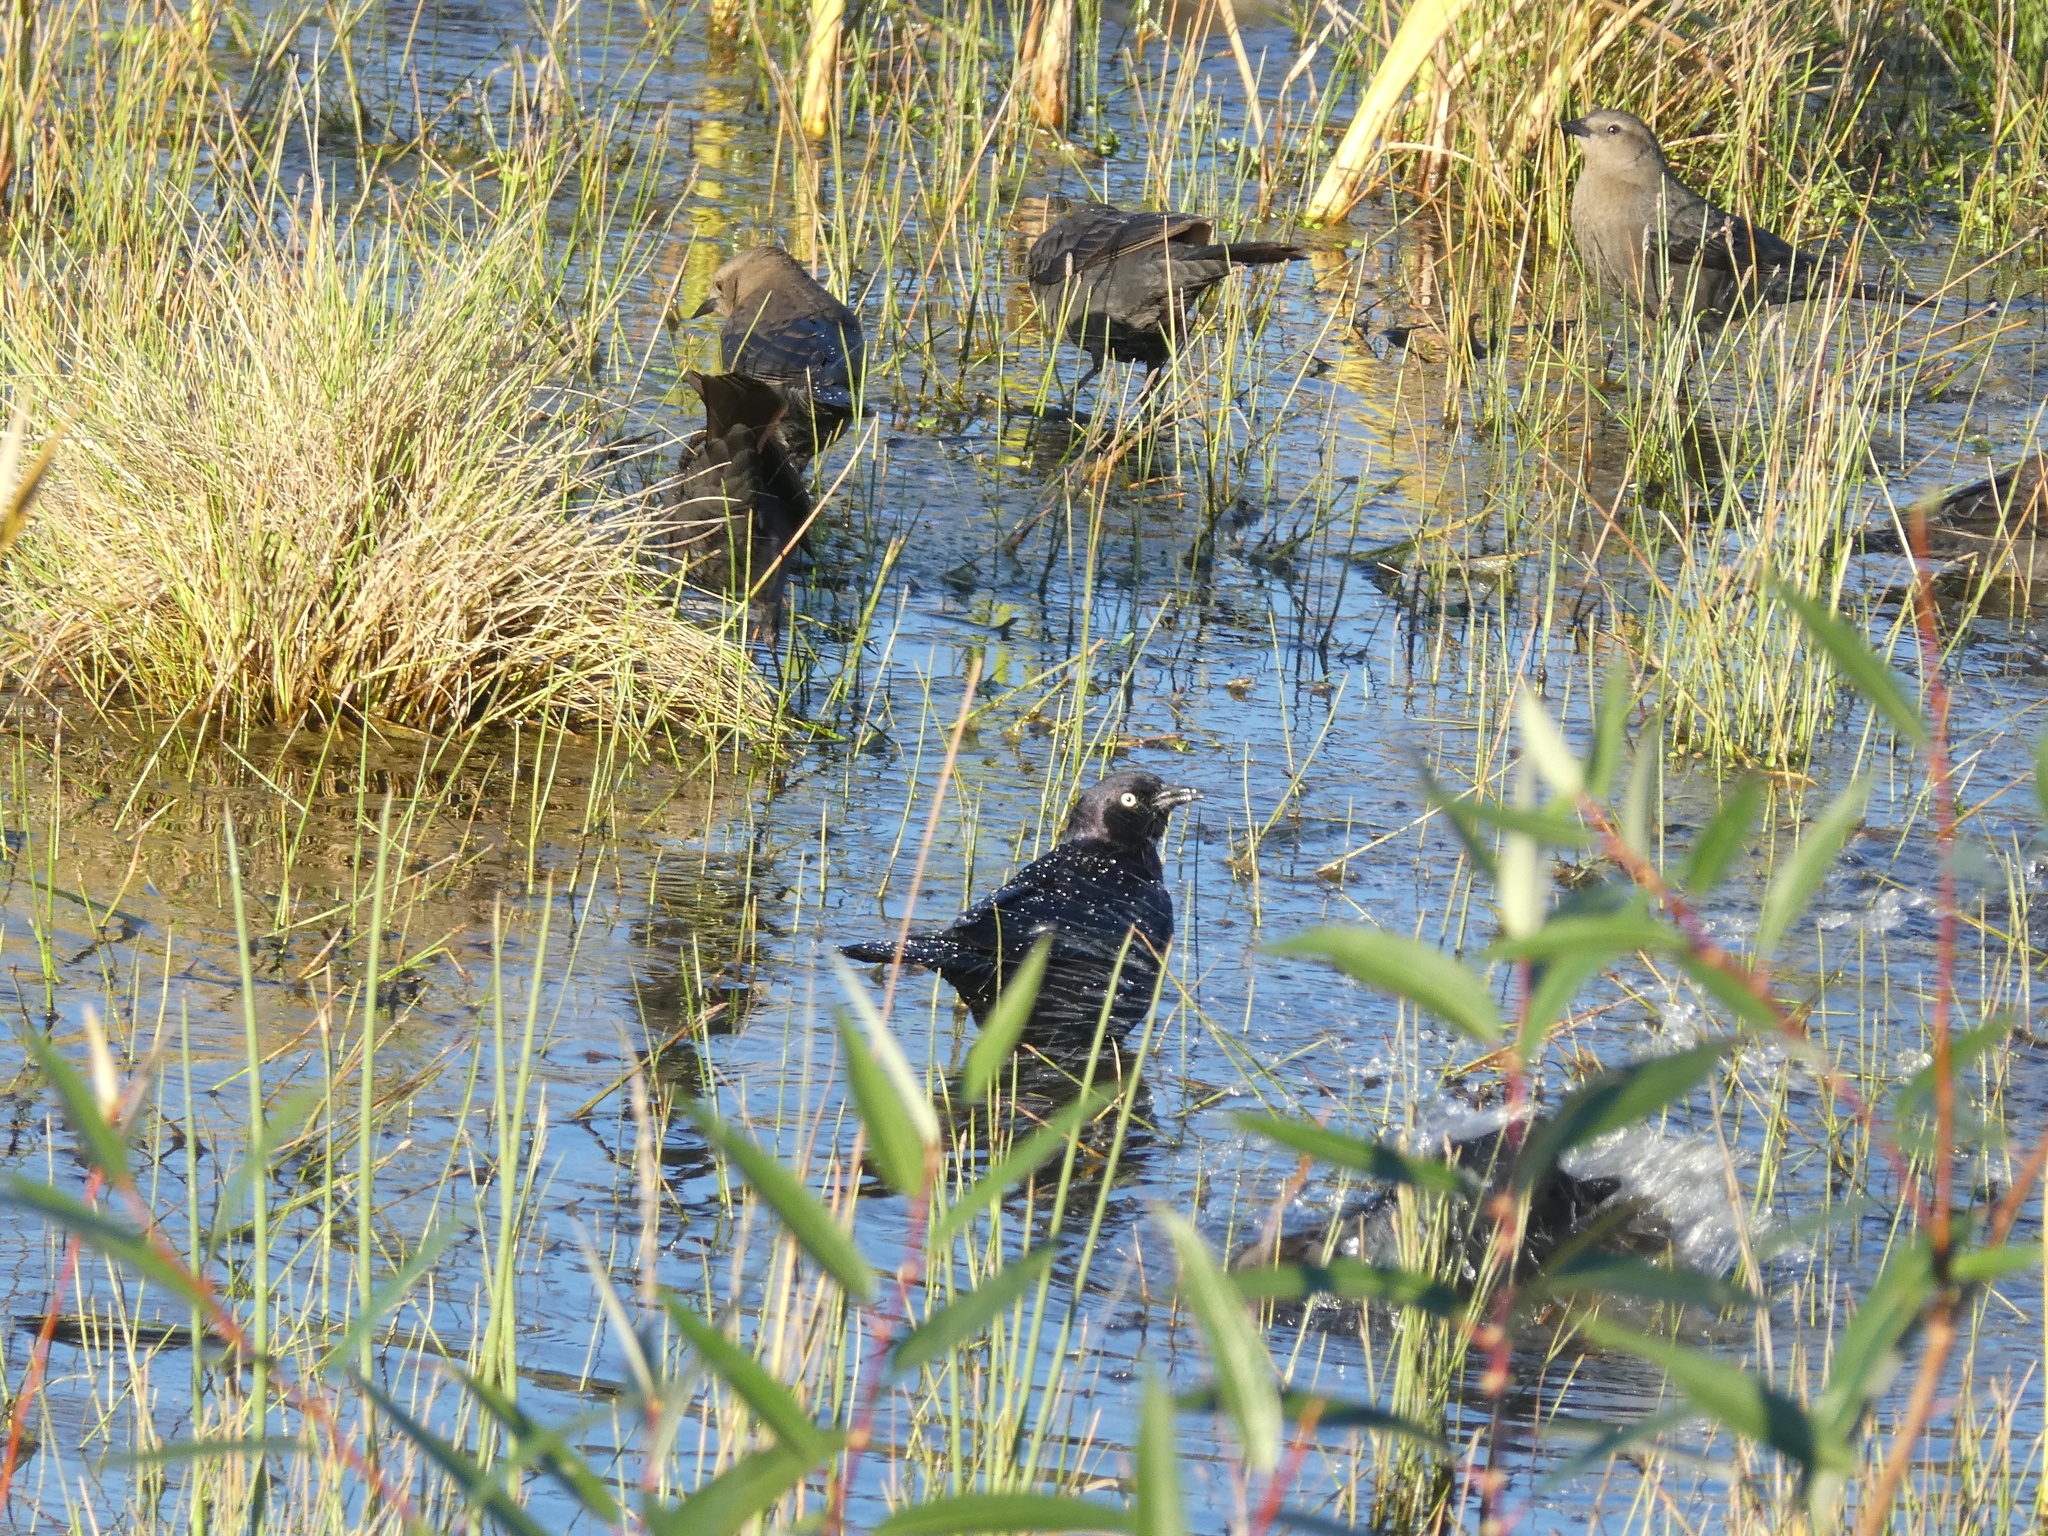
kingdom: Animalia
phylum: Chordata
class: Aves
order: Passeriformes
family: Icteridae
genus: Euphagus
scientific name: Euphagus cyanocephalus
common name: Brewer's blackbird
